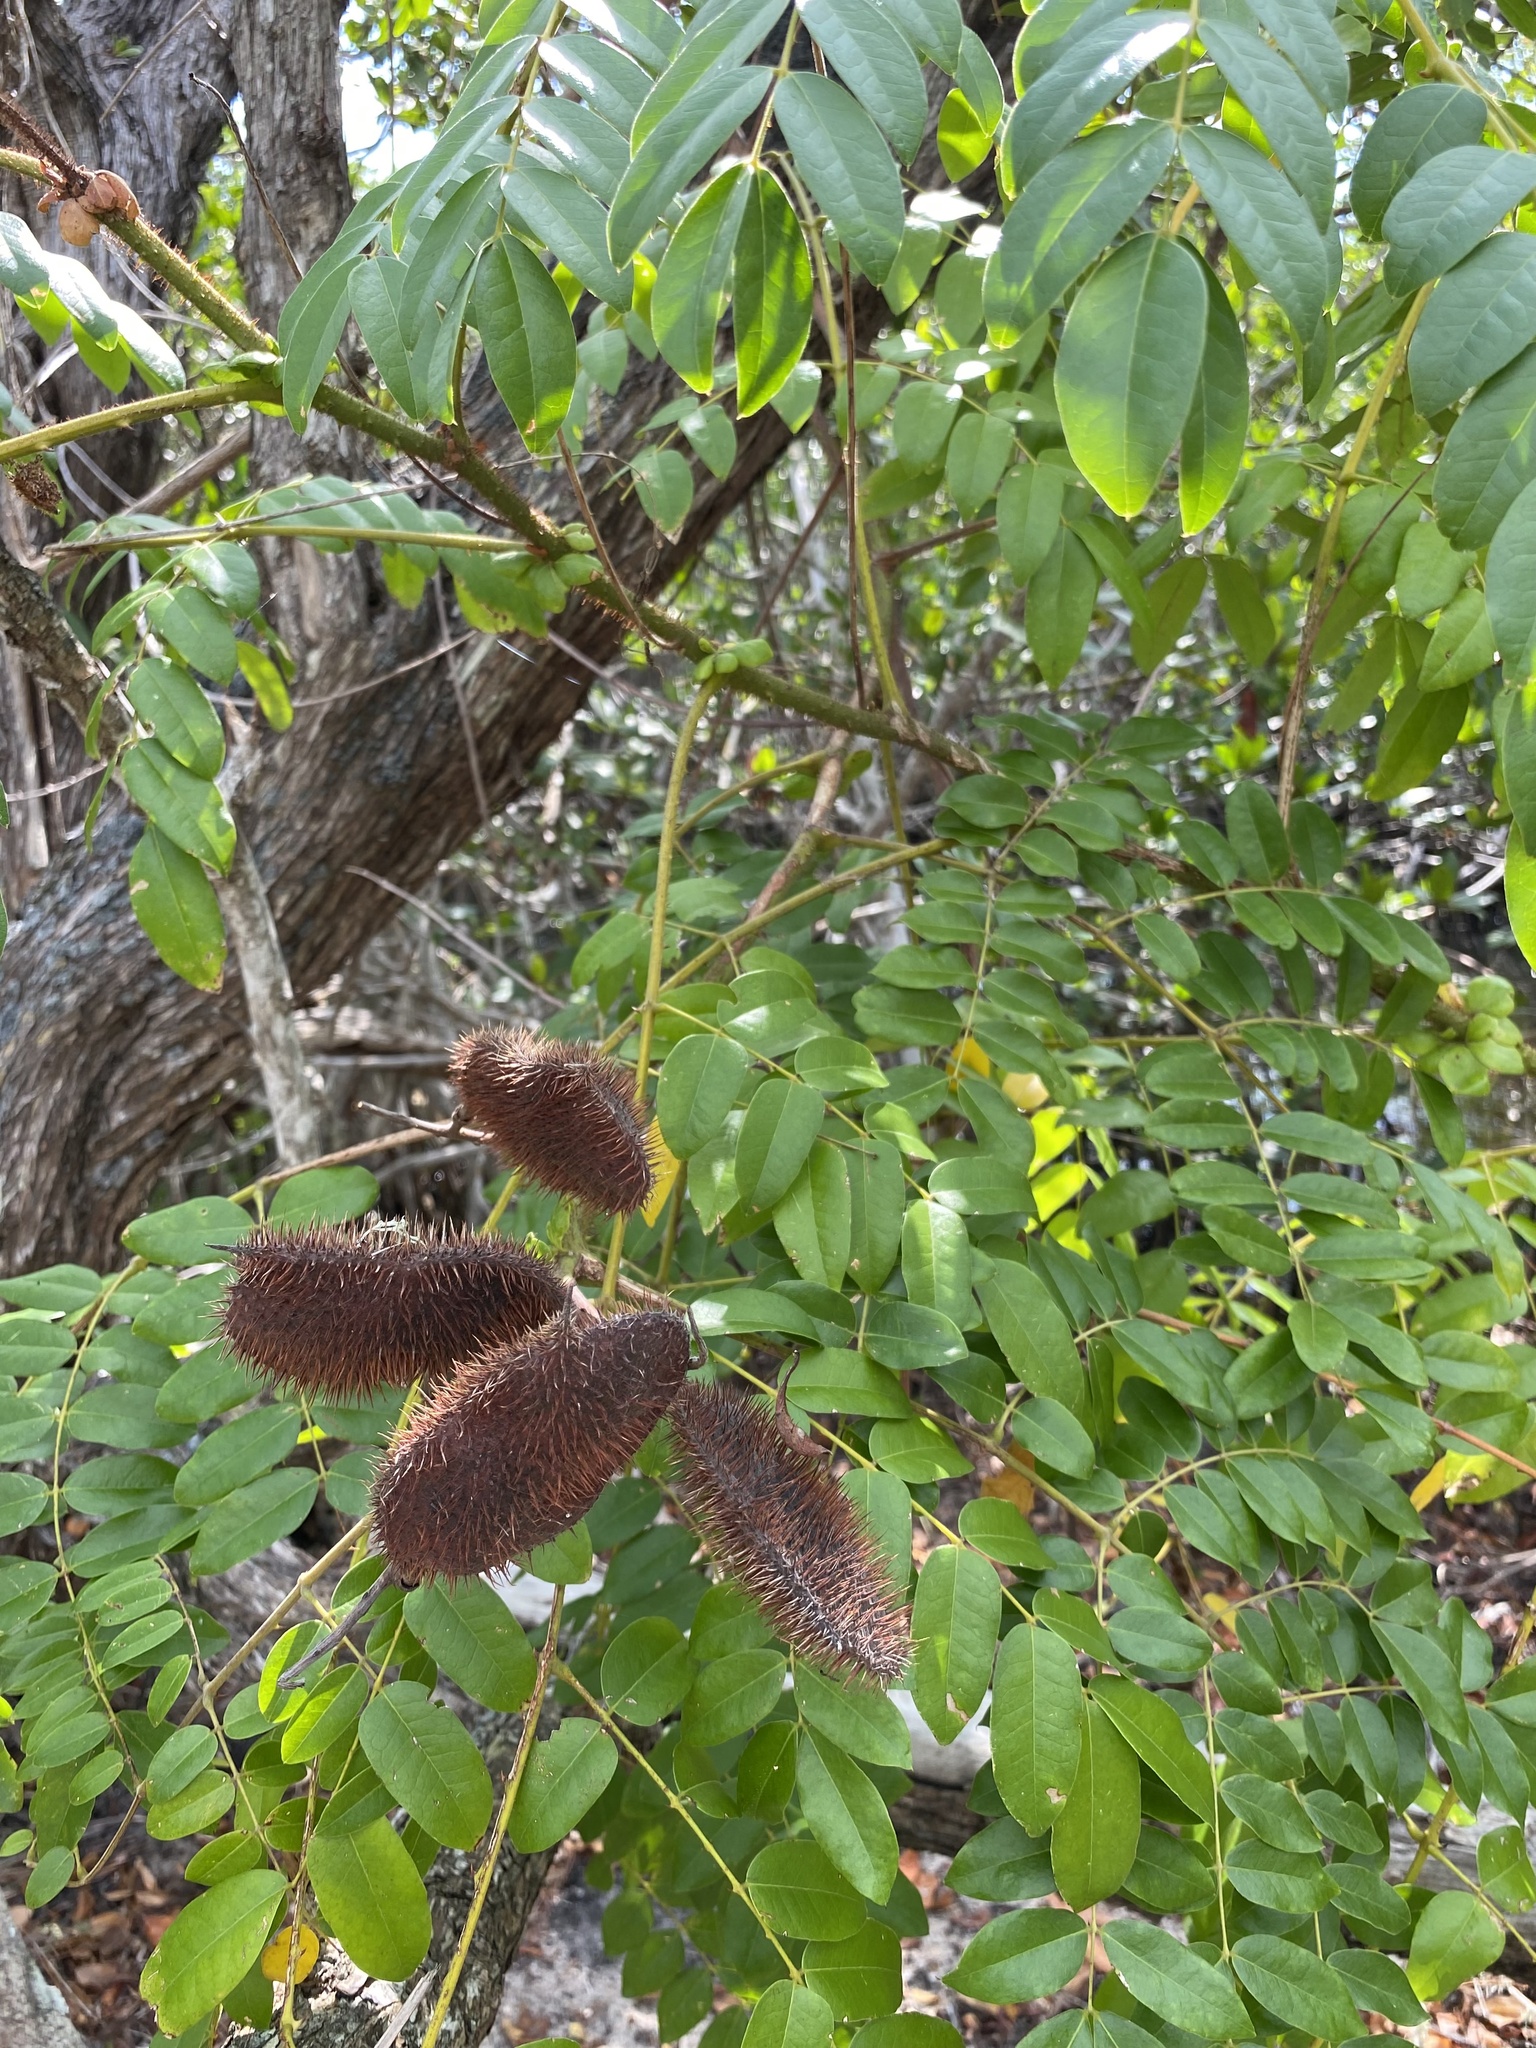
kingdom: Plantae
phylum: Tracheophyta
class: Magnoliopsida
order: Fabales
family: Fabaceae
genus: Guilandina
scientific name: Guilandina bonduc
